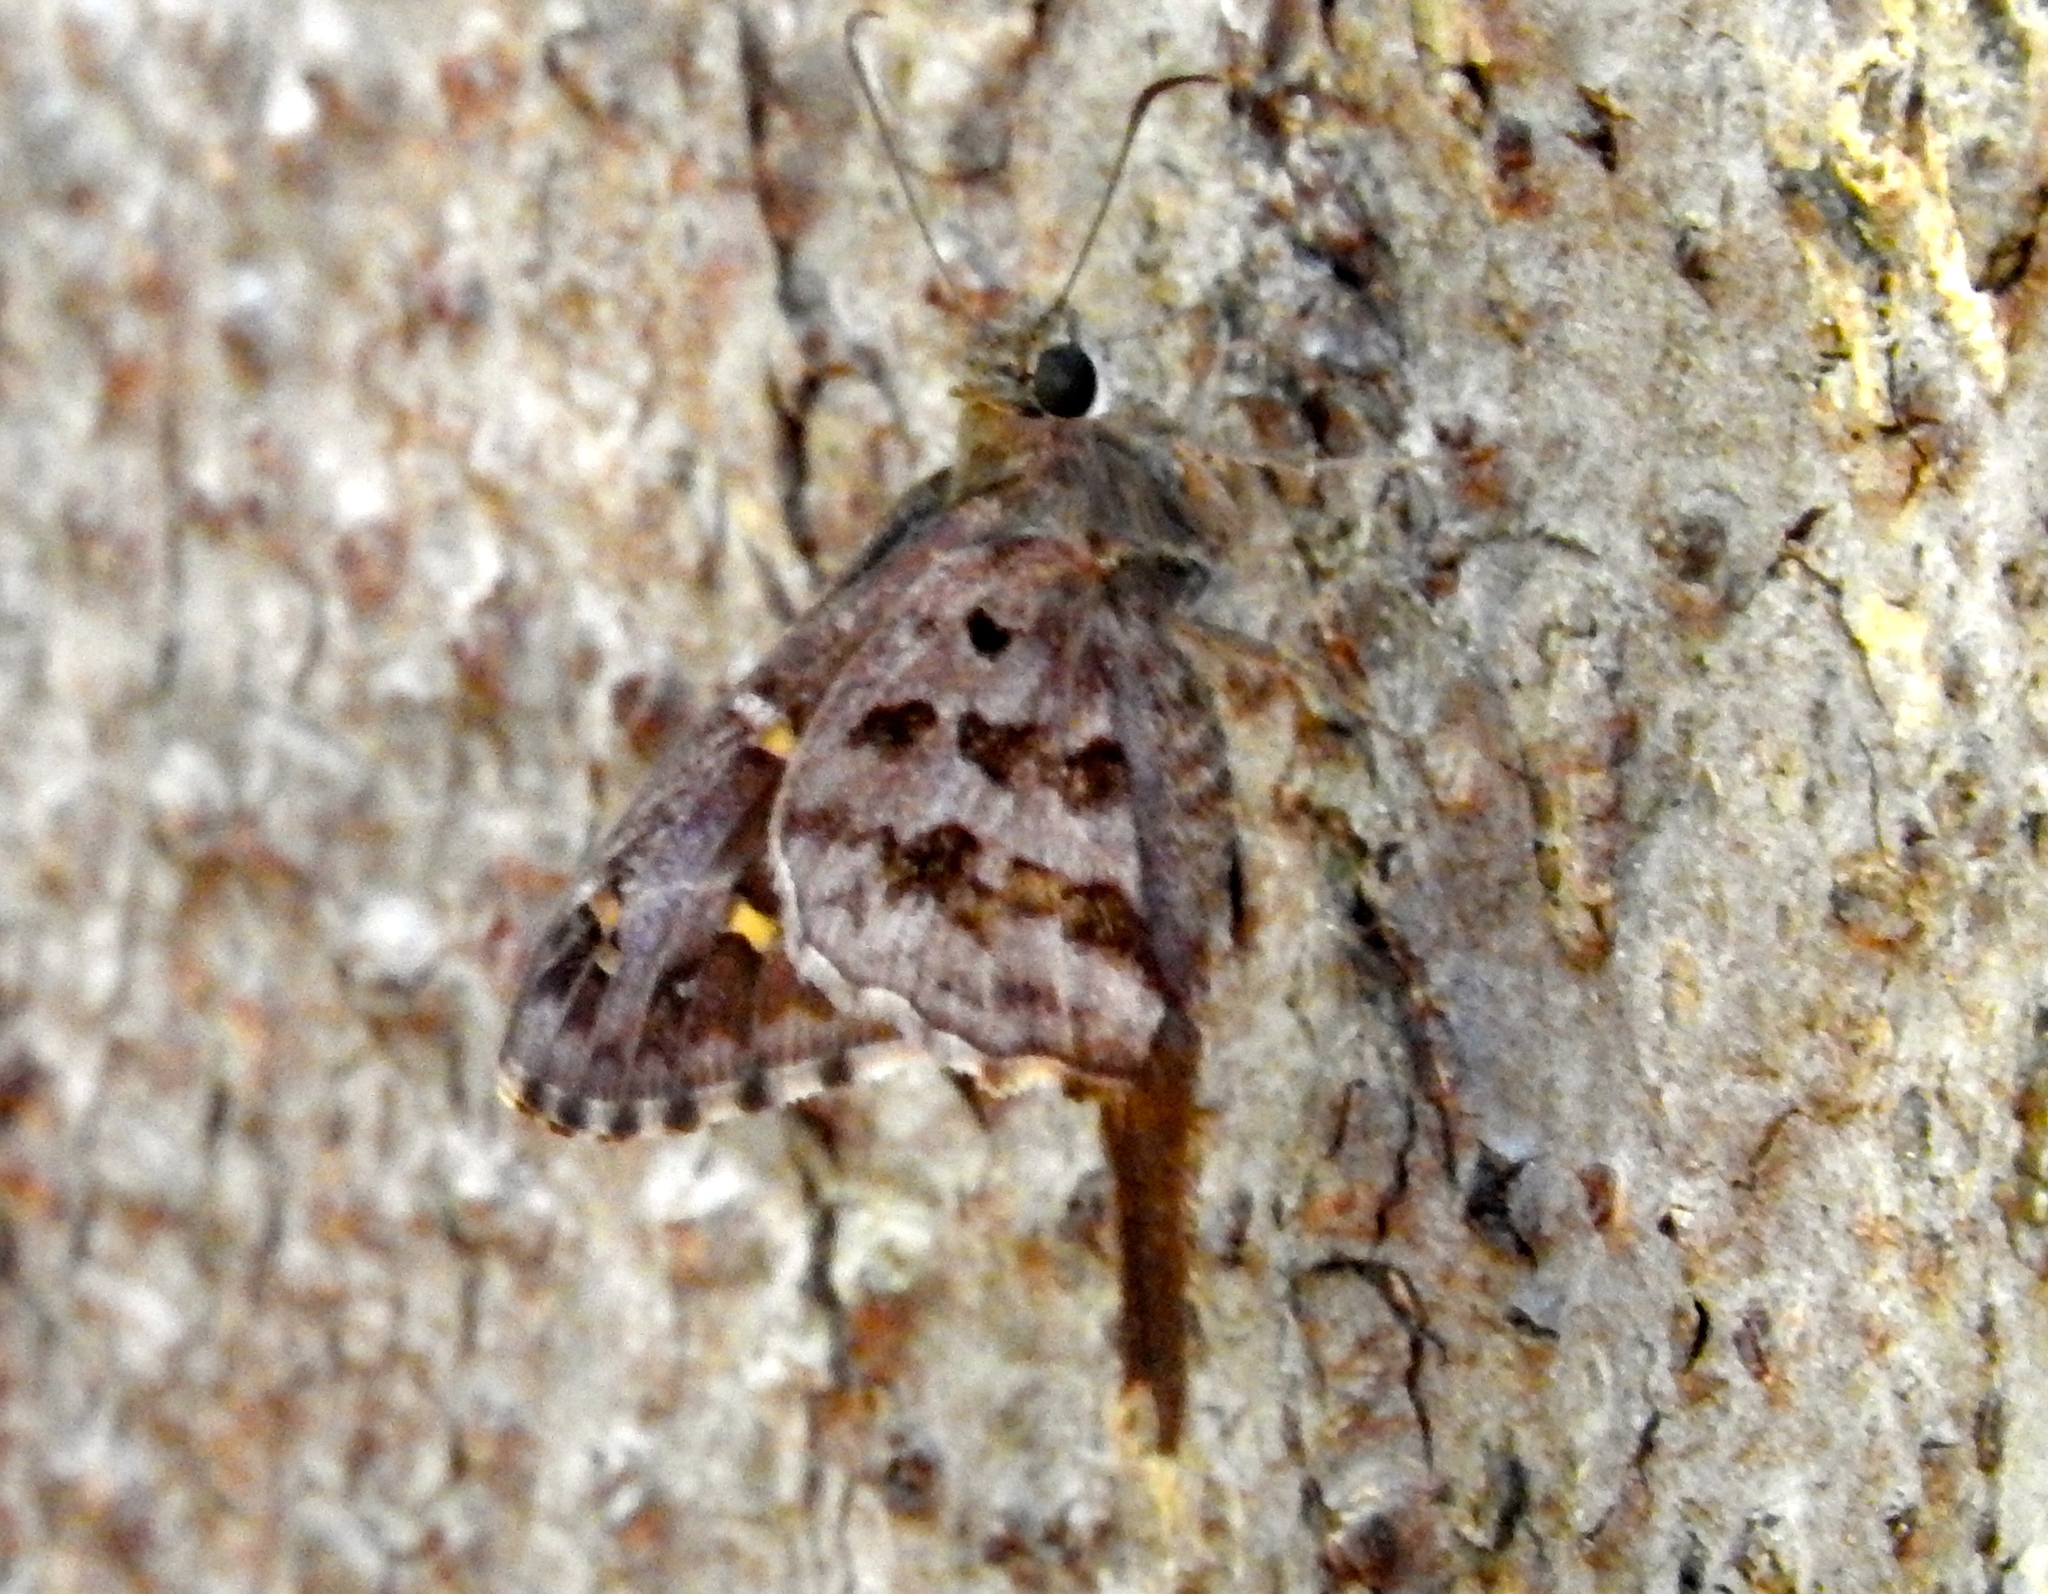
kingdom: Animalia
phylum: Arthropoda
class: Insecta
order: Lepidoptera
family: Hesperiidae
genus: Thorybes
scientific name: Thorybes
